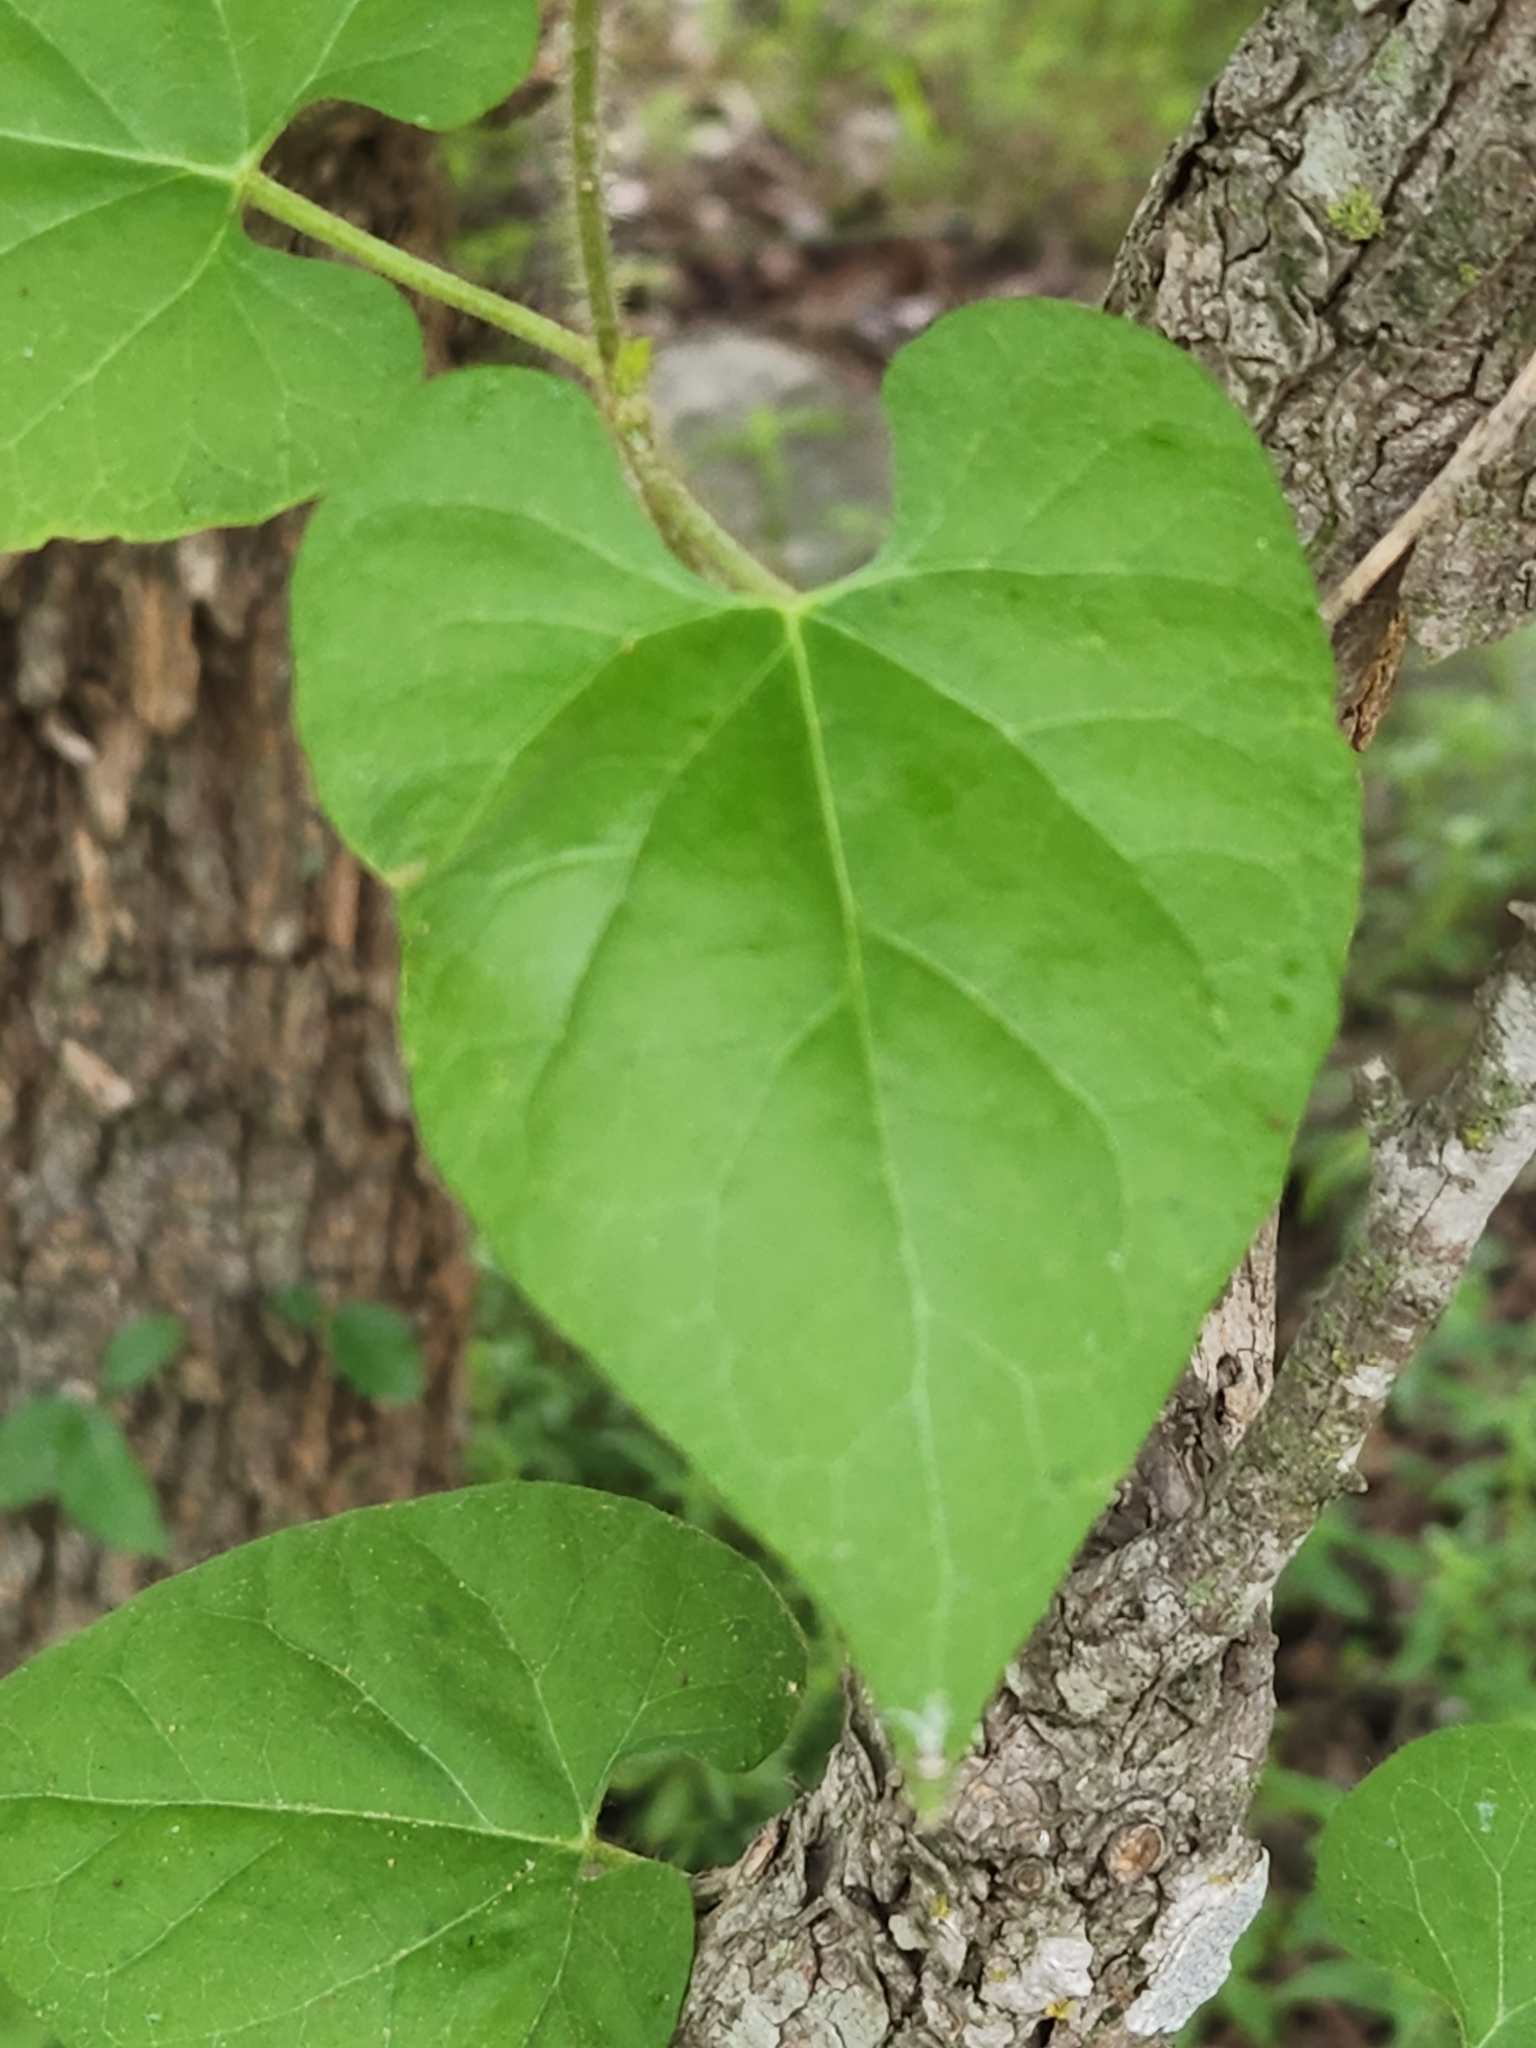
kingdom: Plantae
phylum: Tracheophyta
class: Magnoliopsida
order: Gentianales
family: Apocynaceae
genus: Dictyanthus
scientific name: Dictyanthus reticulatus
